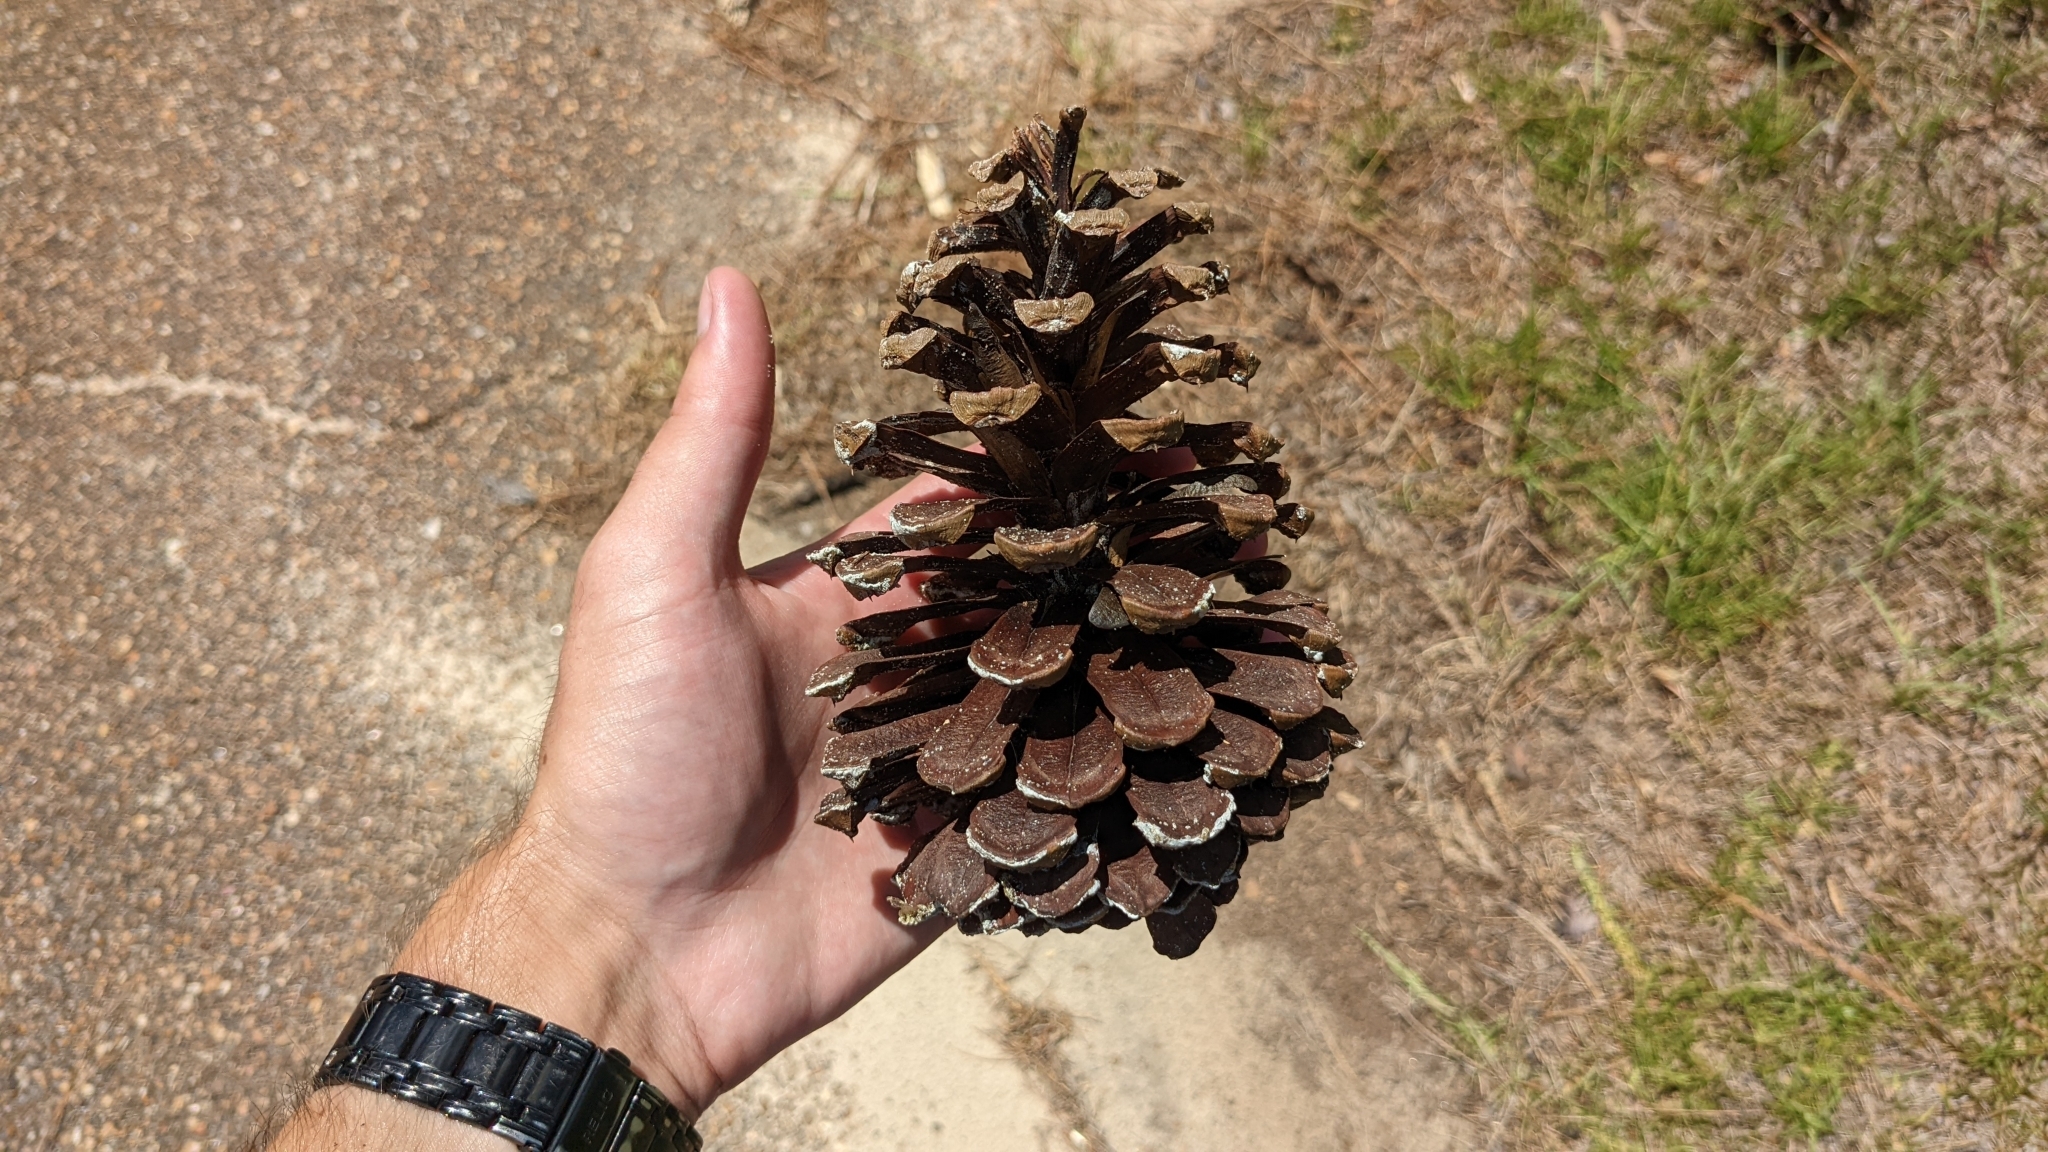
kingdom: Plantae
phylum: Tracheophyta
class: Pinopsida
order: Pinales
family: Pinaceae
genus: Pinus
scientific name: Pinus palustris
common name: Longleaf pine
